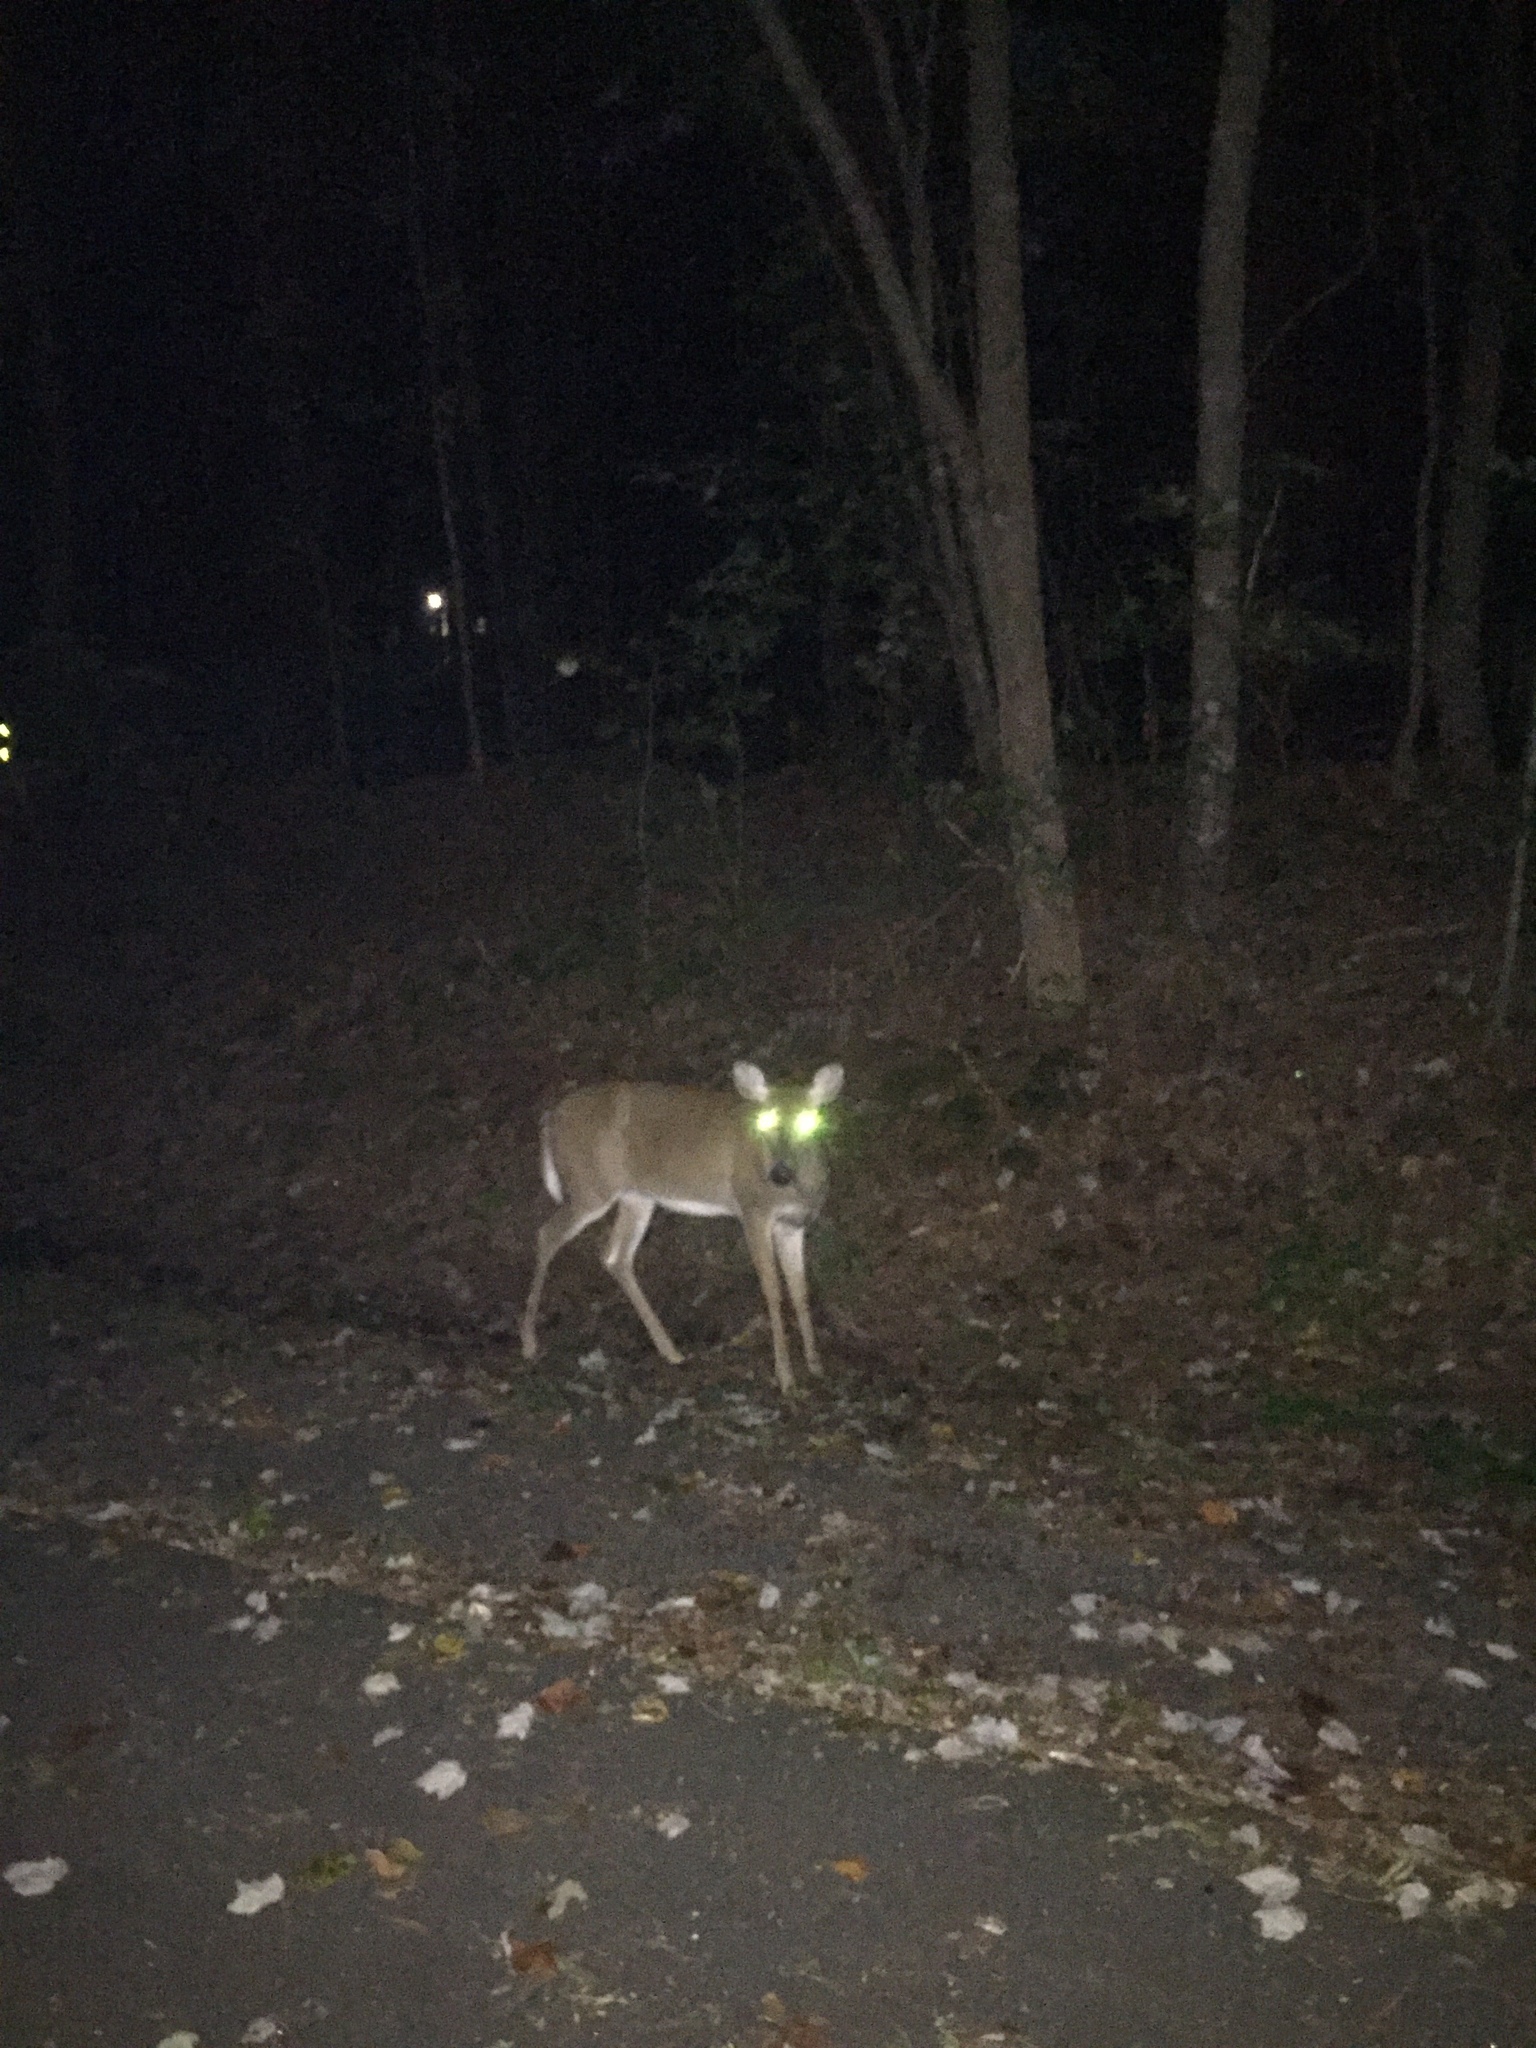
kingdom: Animalia
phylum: Chordata
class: Mammalia
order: Artiodactyla
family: Cervidae
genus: Odocoileus
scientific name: Odocoileus virginianus
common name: White-tailed deer
